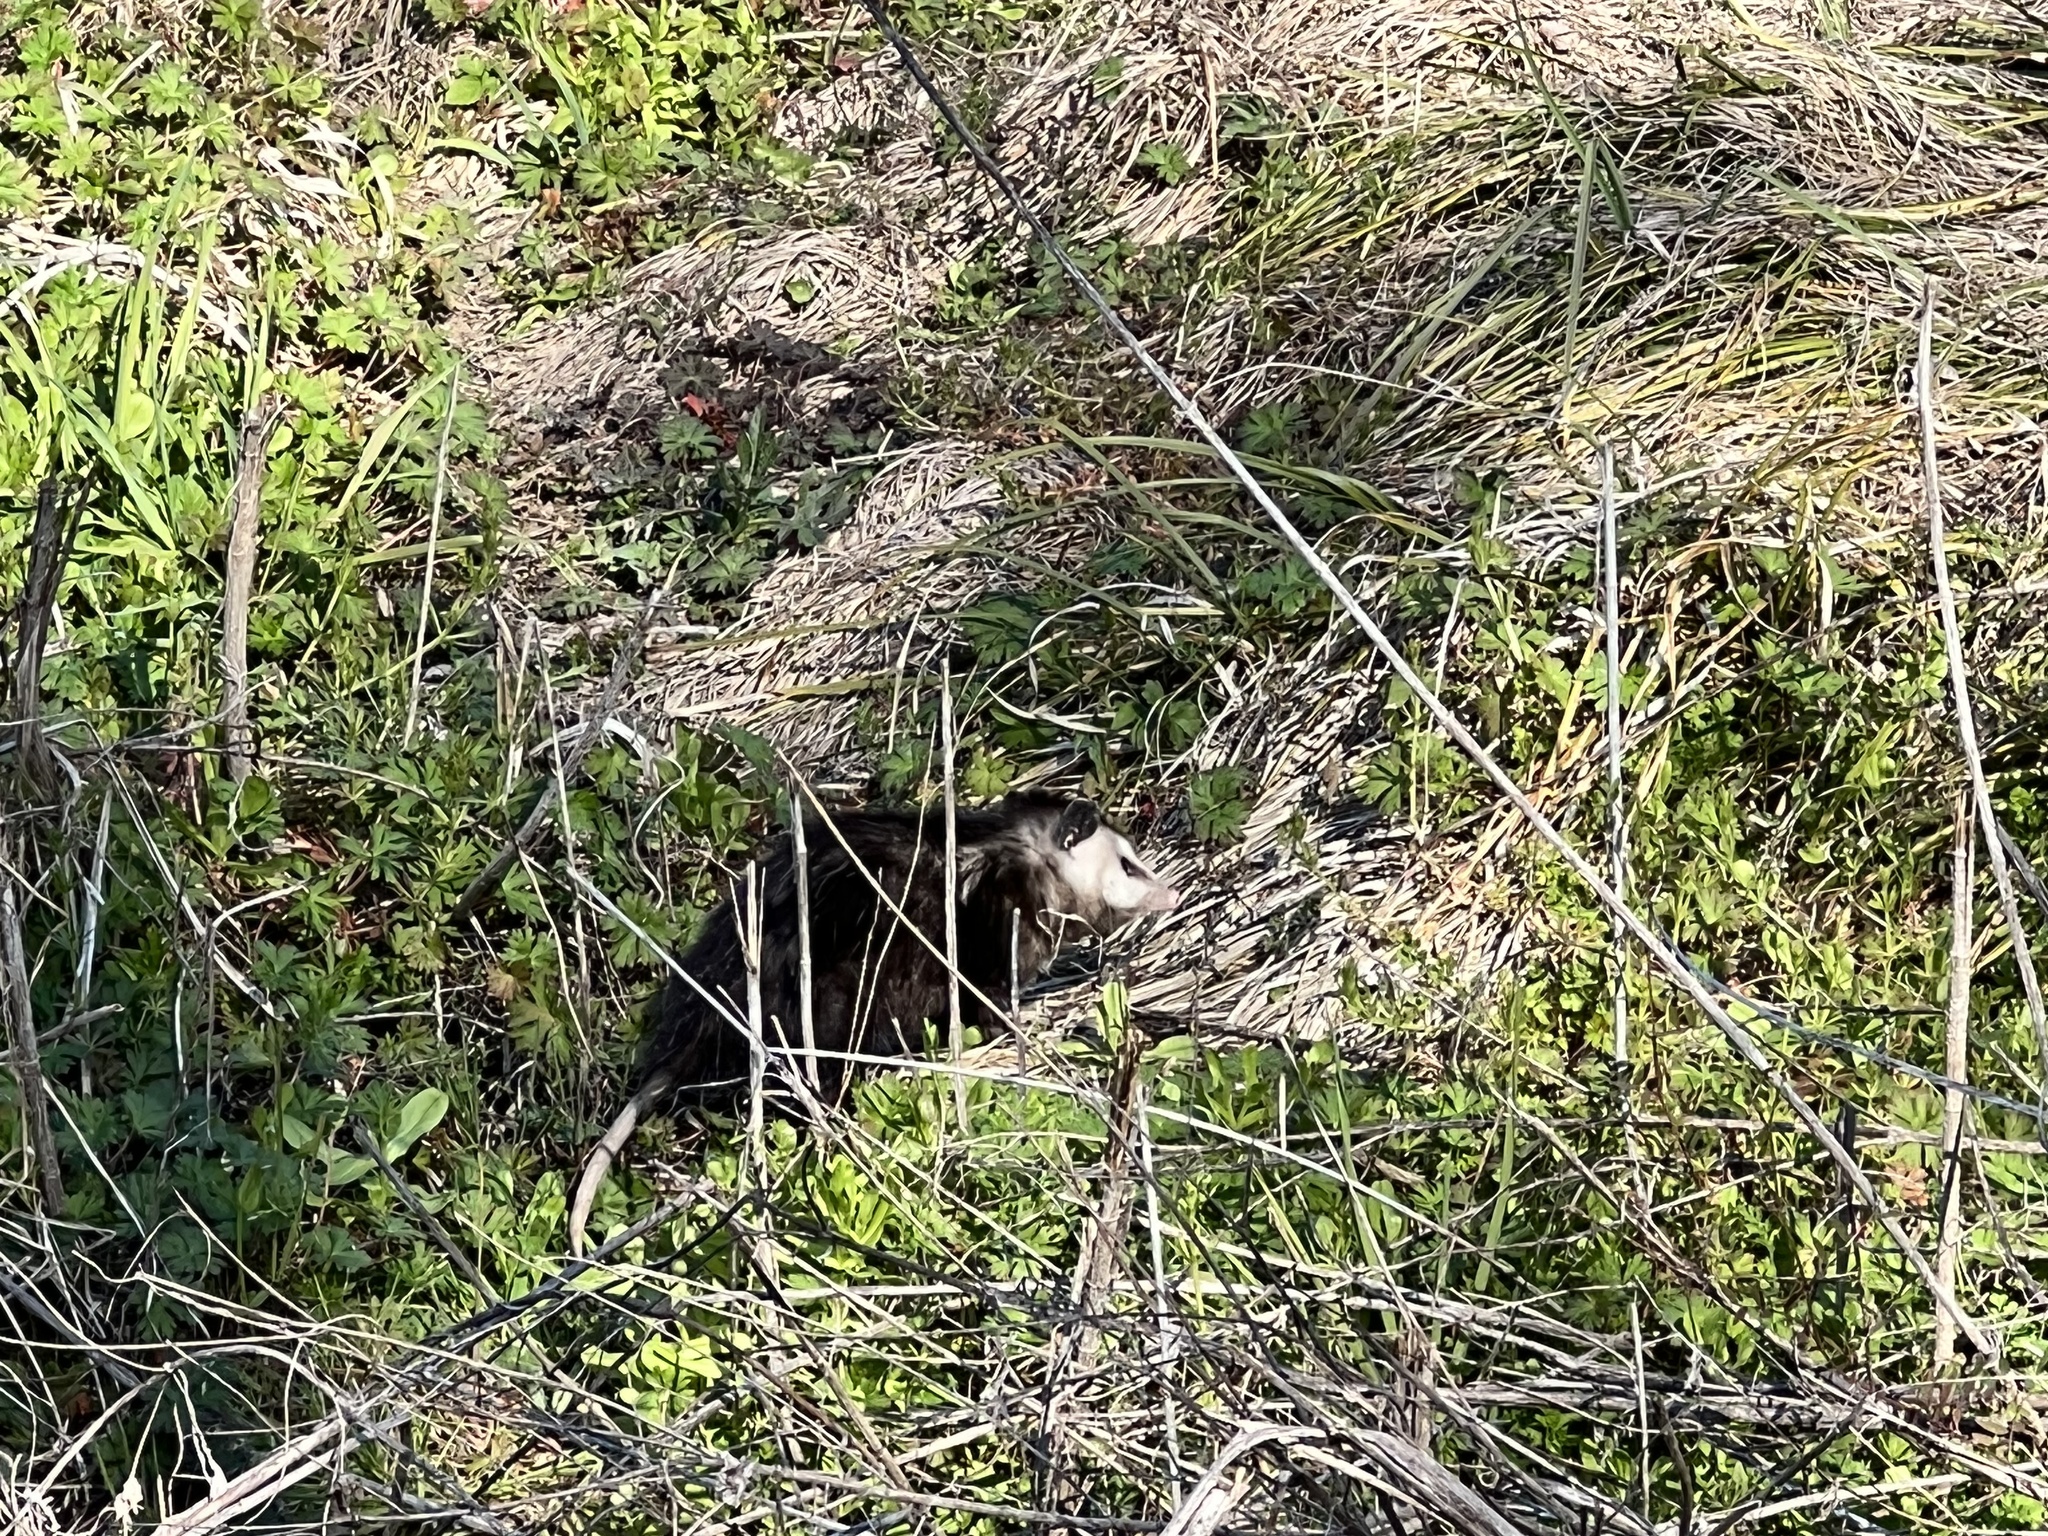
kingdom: Animalia
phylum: Chordata
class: Mammalia
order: Didelphimorphia
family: Didelphidae
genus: Didelphis
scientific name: Didelphis virginiana
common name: Virginia opossum
